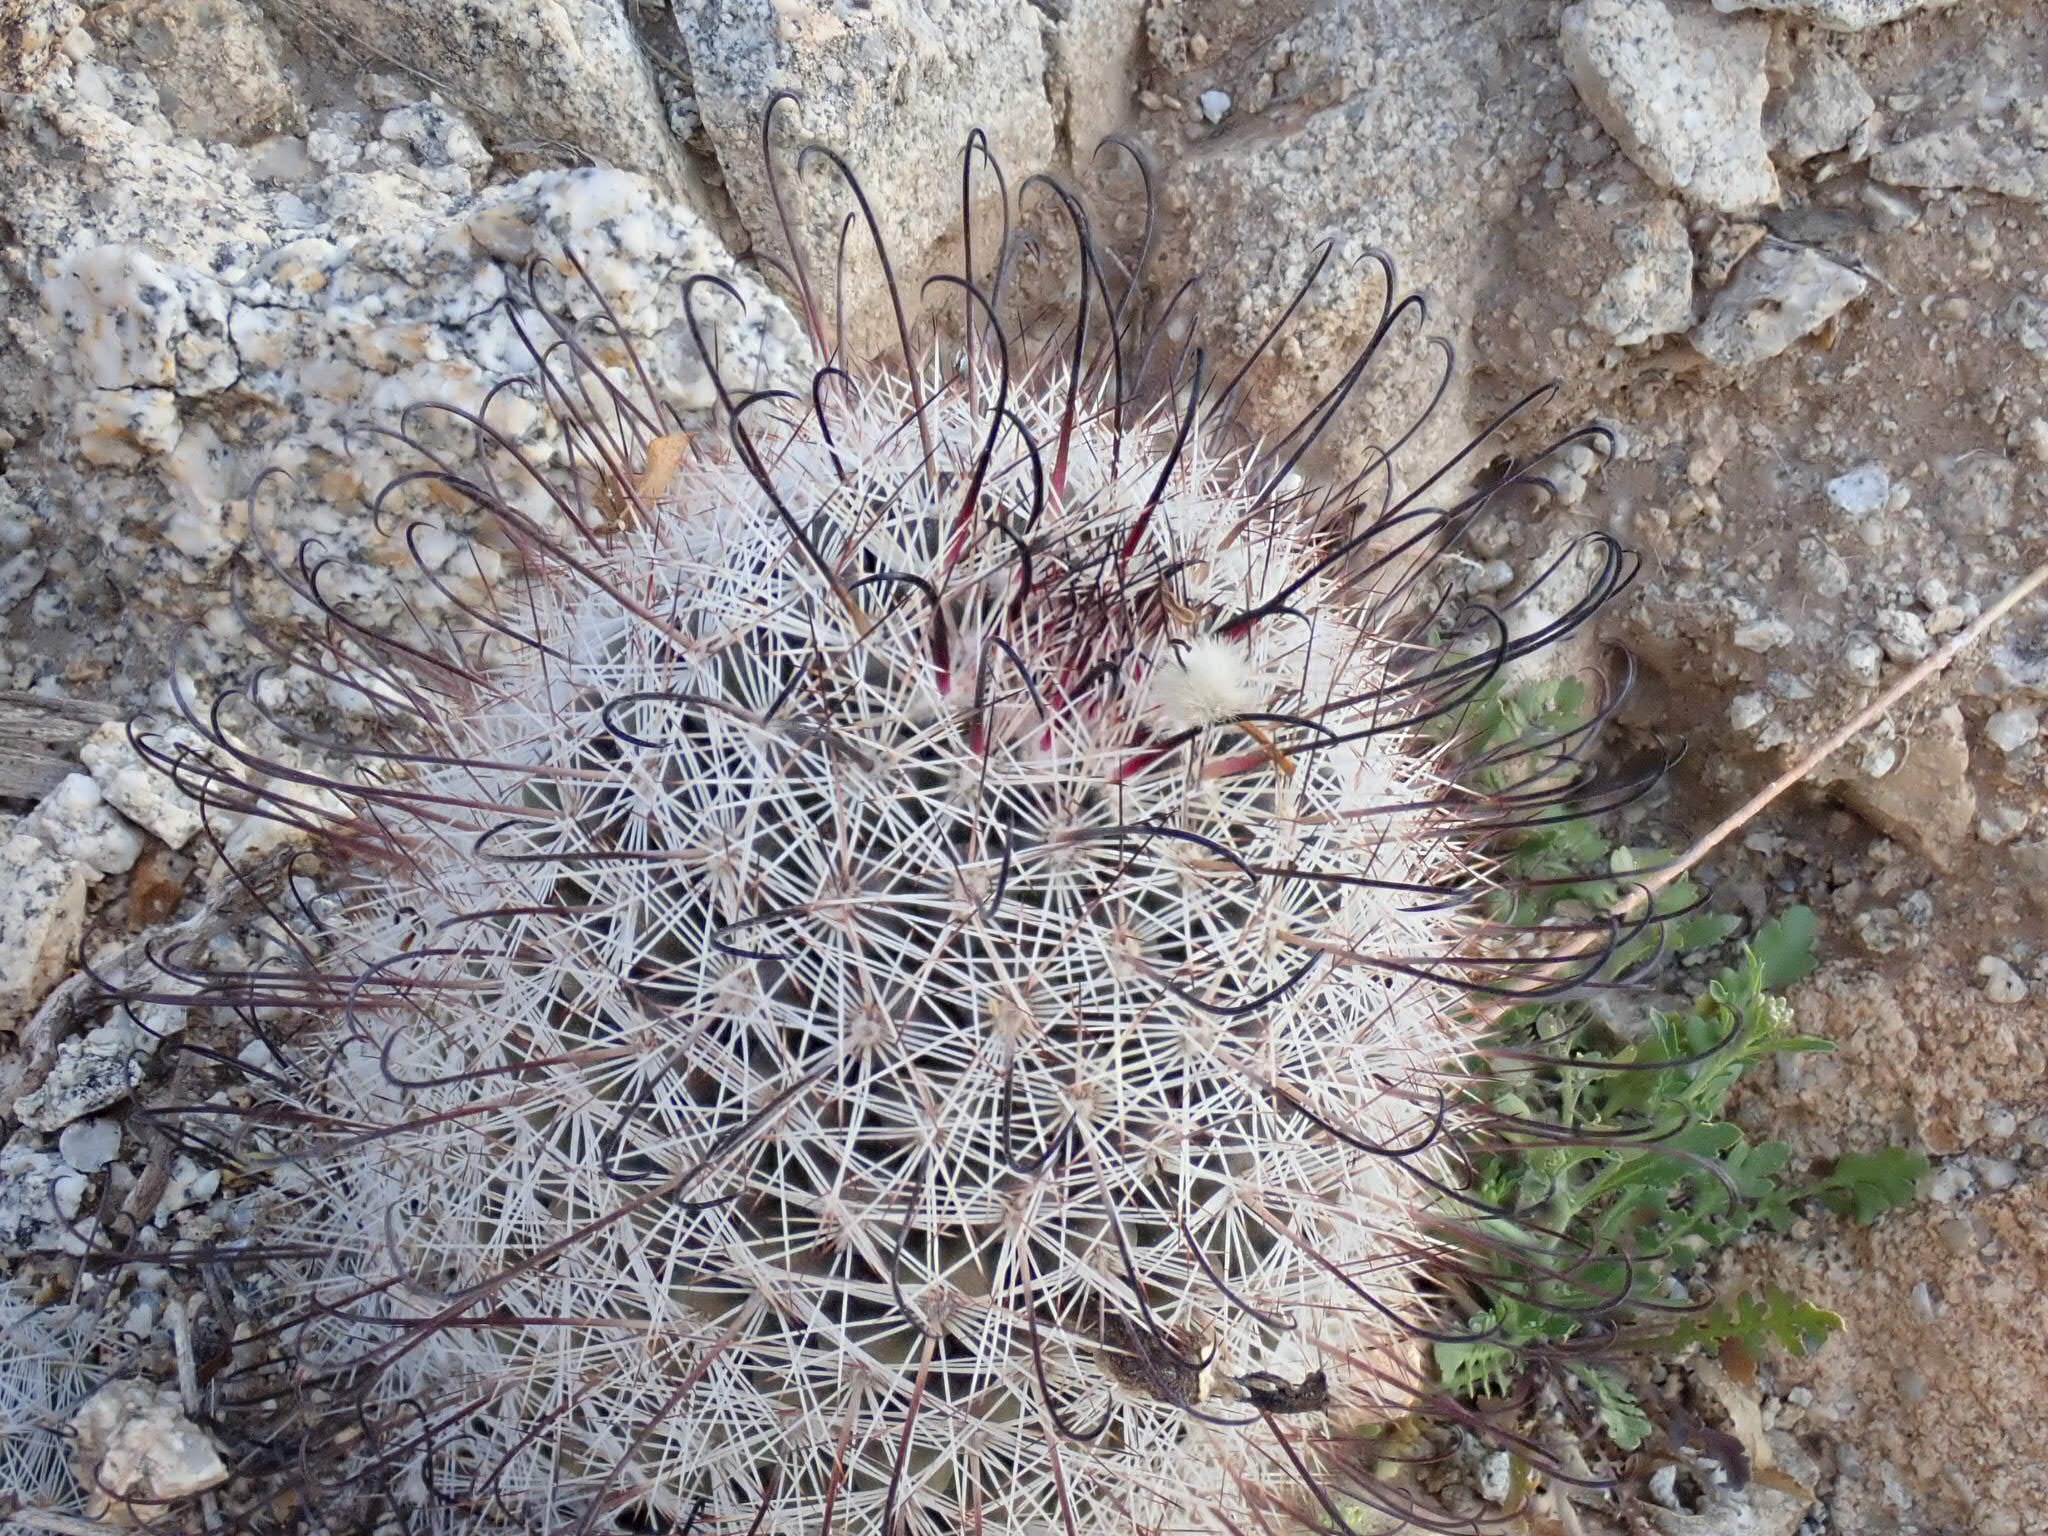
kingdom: Plantae
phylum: Tracheophyta
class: Magnoliopsida
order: Caryophyllales
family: Cactaceae
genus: Cochemiea
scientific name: Cochemiea grahamii
